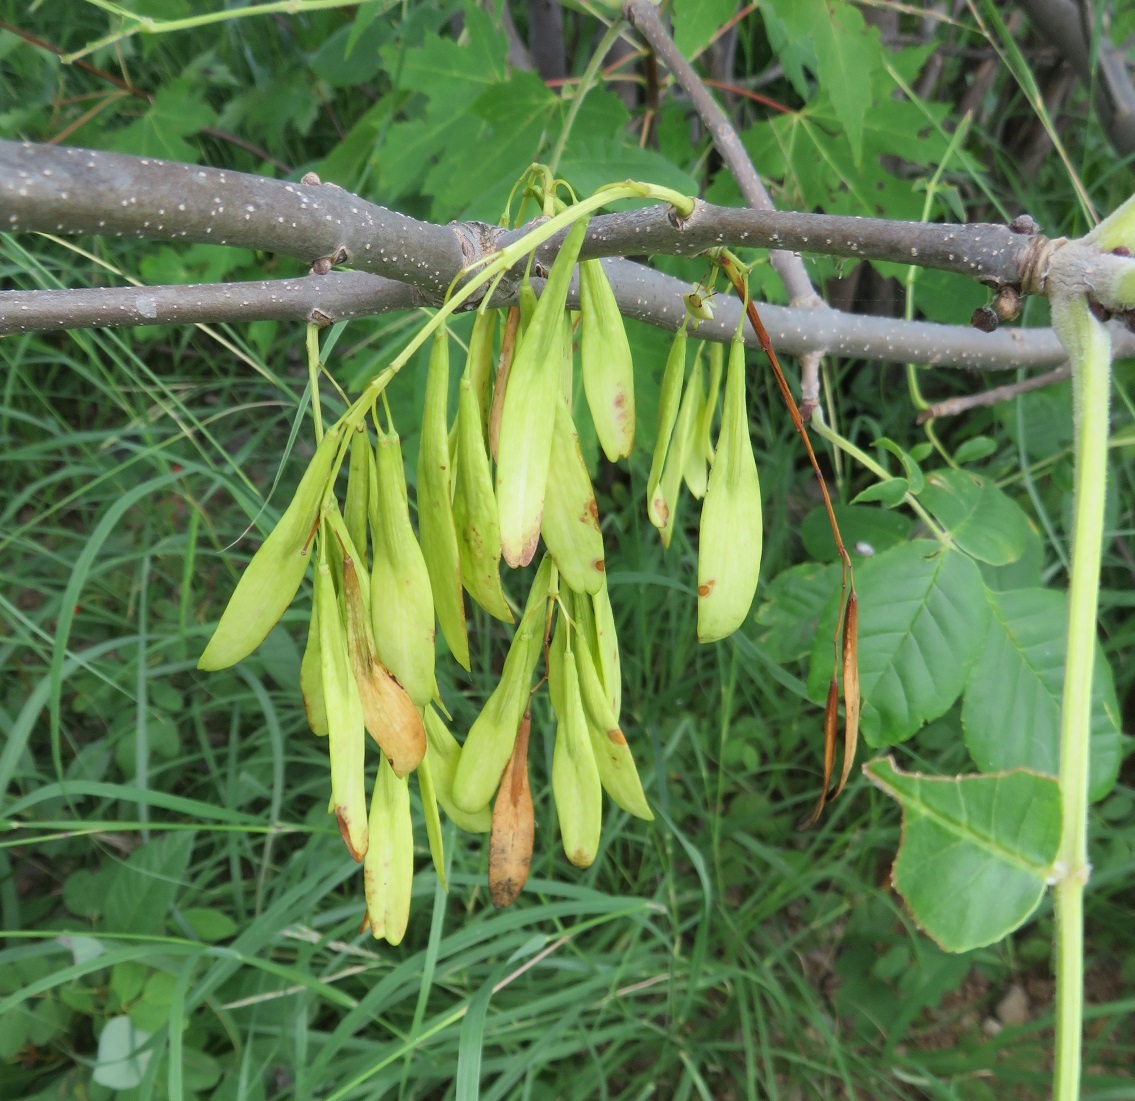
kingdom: Plantae
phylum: Tracheophyta
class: Magnoliopsida
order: Lamiales
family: Oleaceae
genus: Fraxinus
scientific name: Fraxinus pennsylvanica
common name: Green ash
